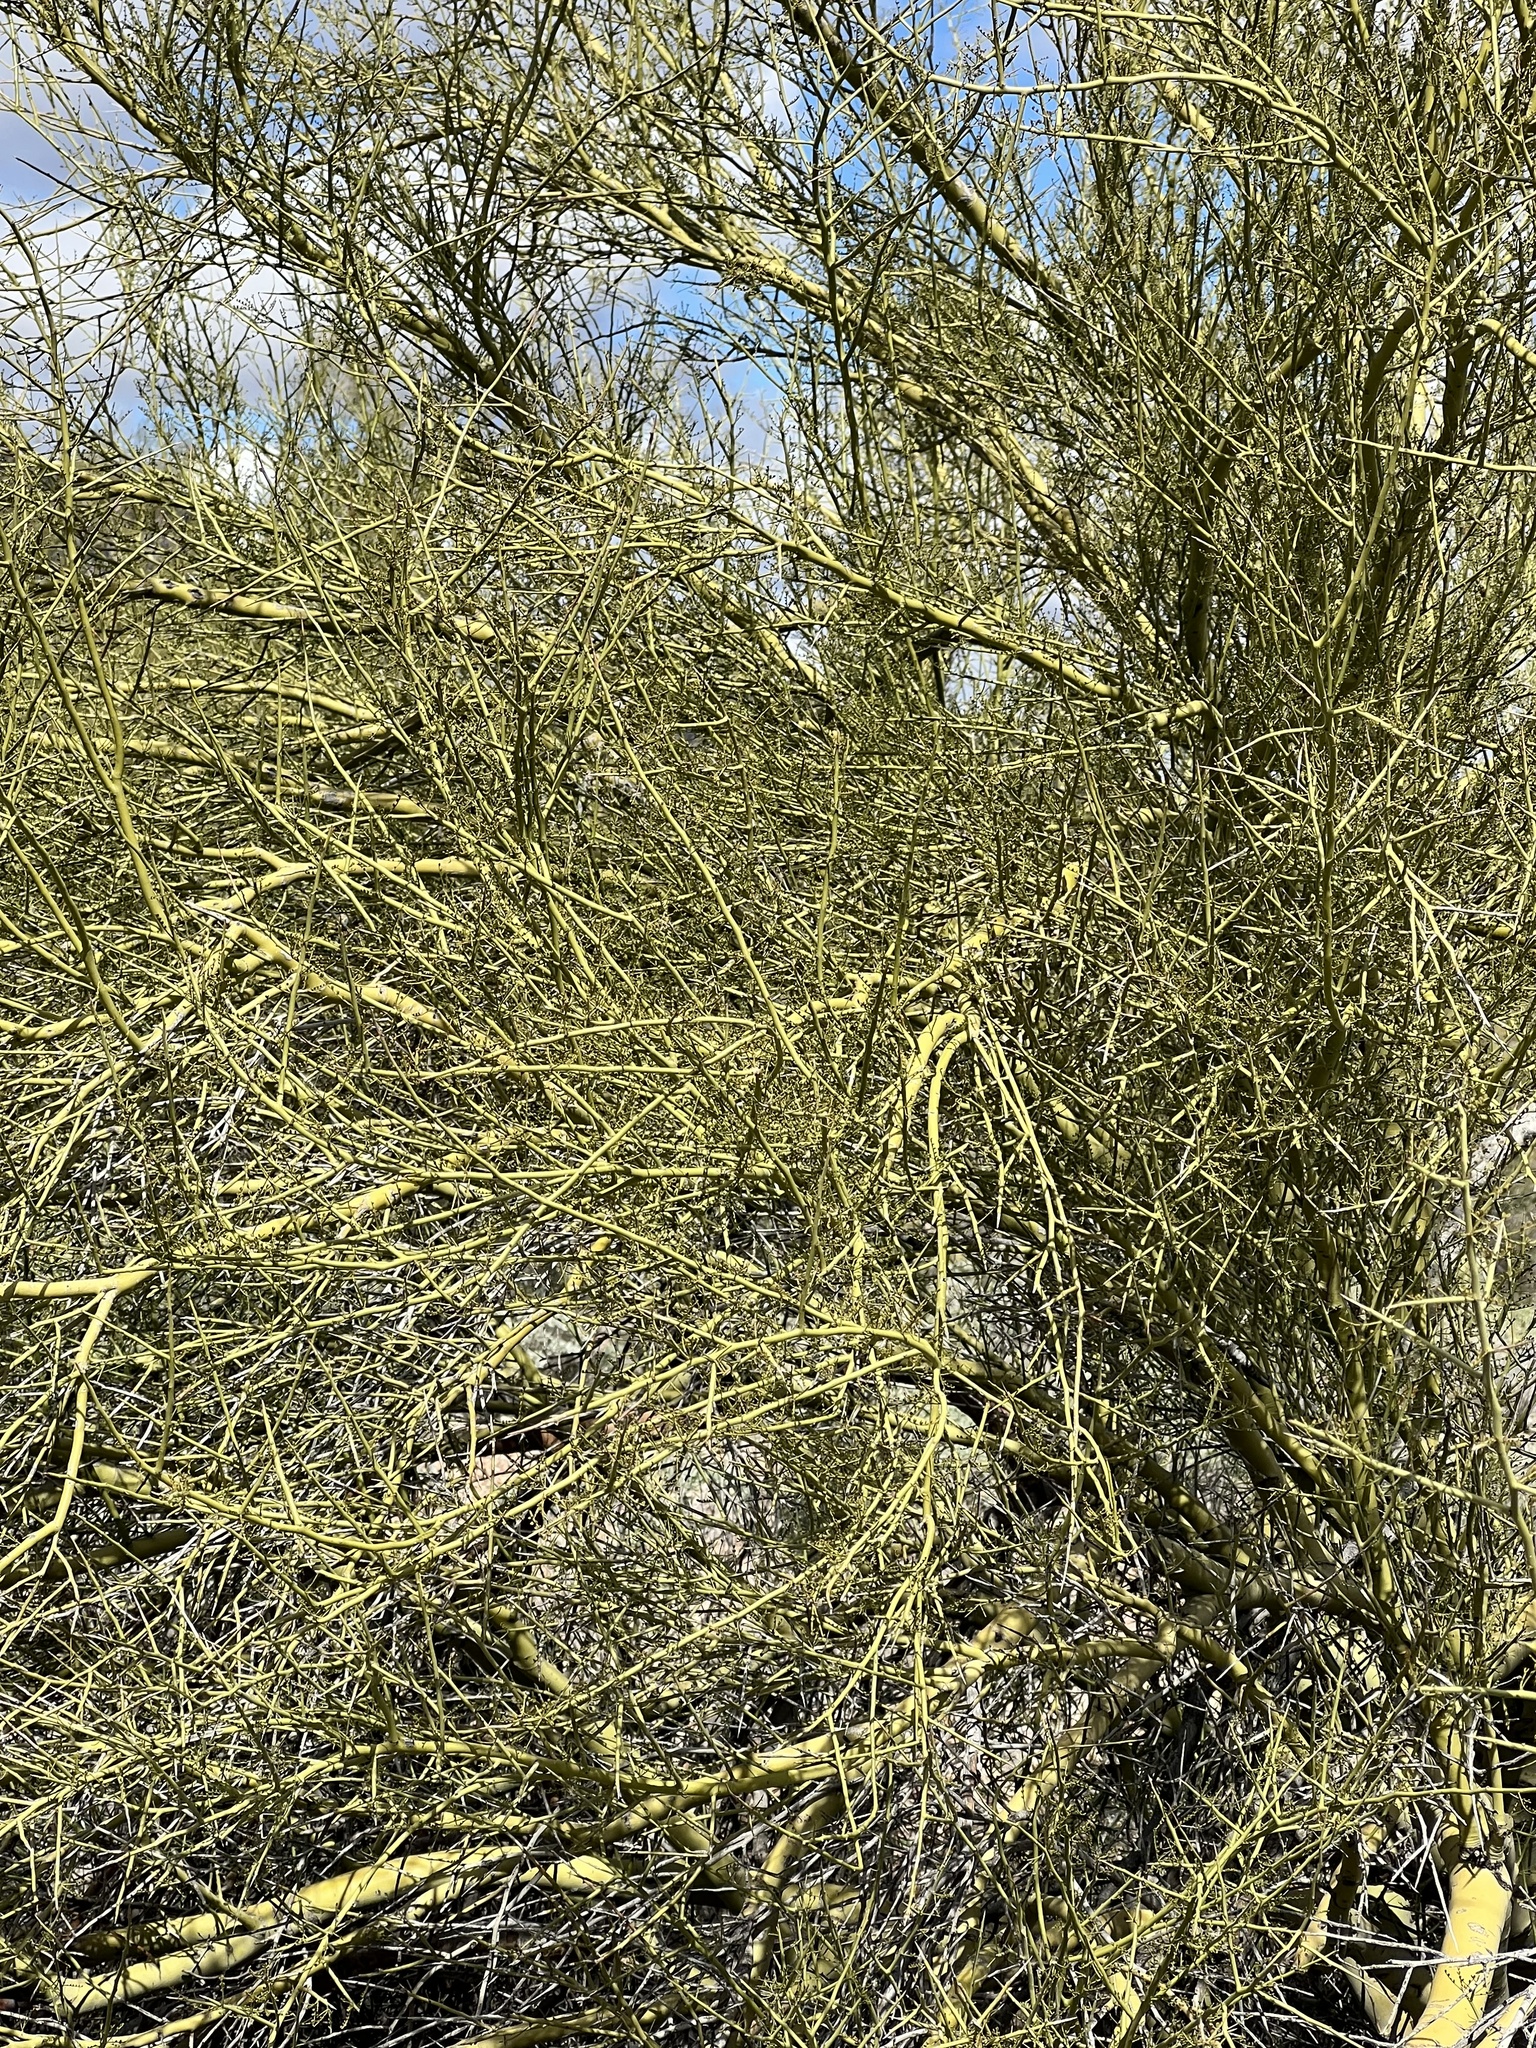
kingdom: Plantae
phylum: Tracheophyta
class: Magnoliopsida
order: Fabales
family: Fabaceae
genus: Parkinsonia
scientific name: Parkinsonia microphylla
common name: Yellow paloverde
